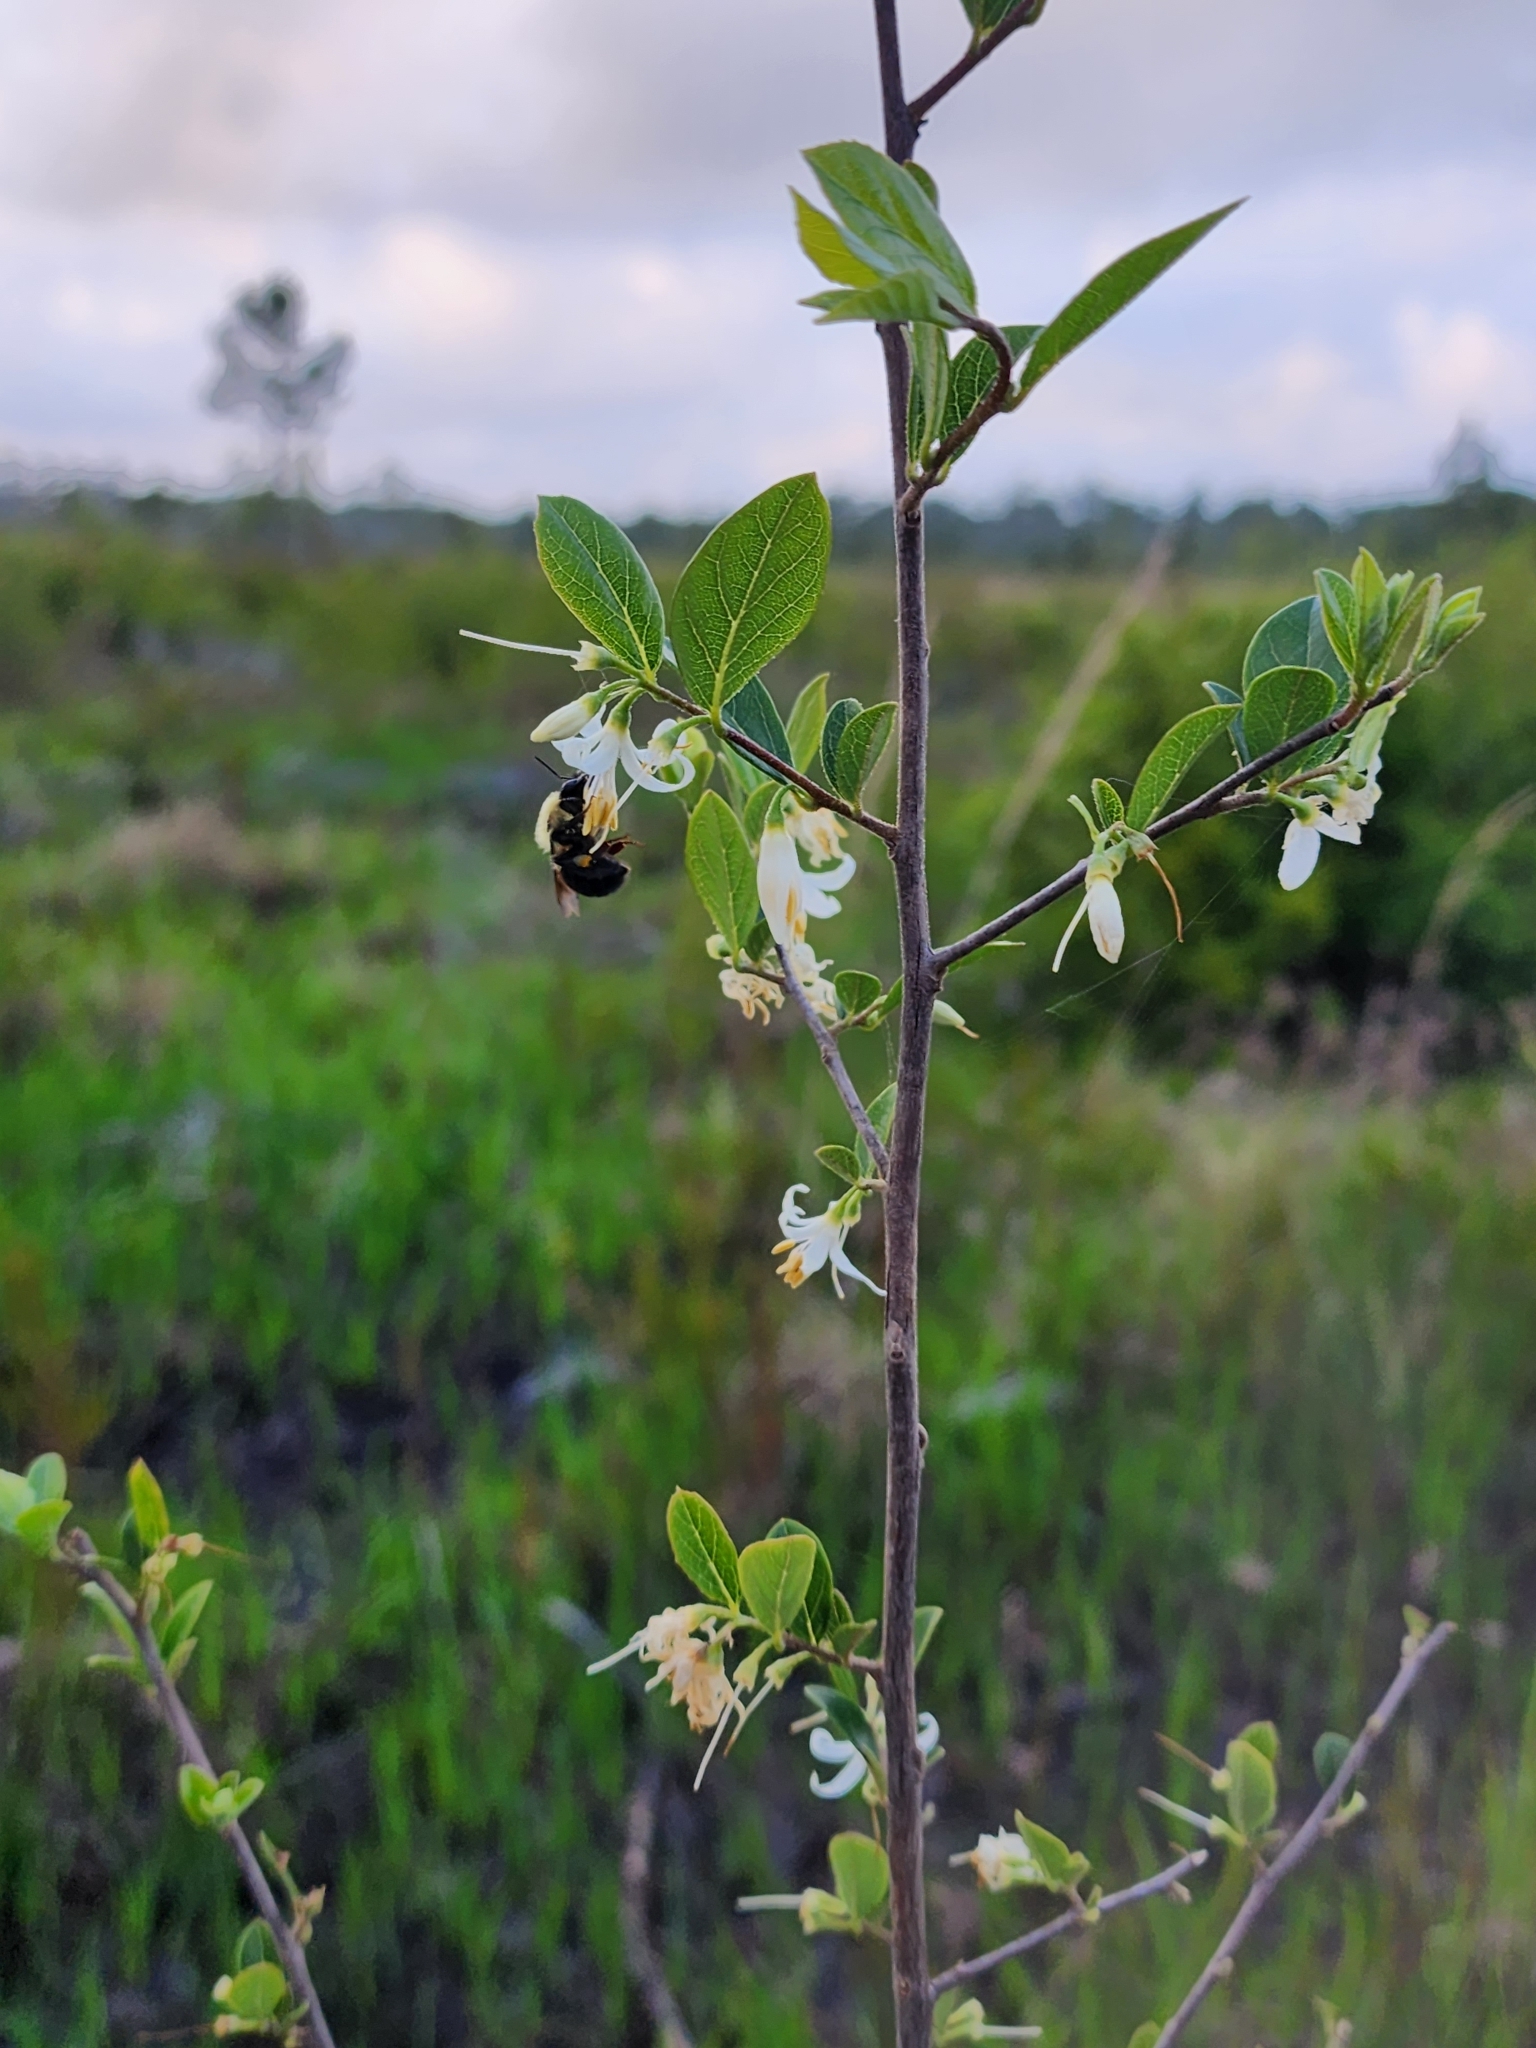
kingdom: Plantae
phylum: Tracheophyta
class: Magnoliopsida
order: Ericales
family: Styracaceae
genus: Styrax
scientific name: Styrax americanus
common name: American snowbell
